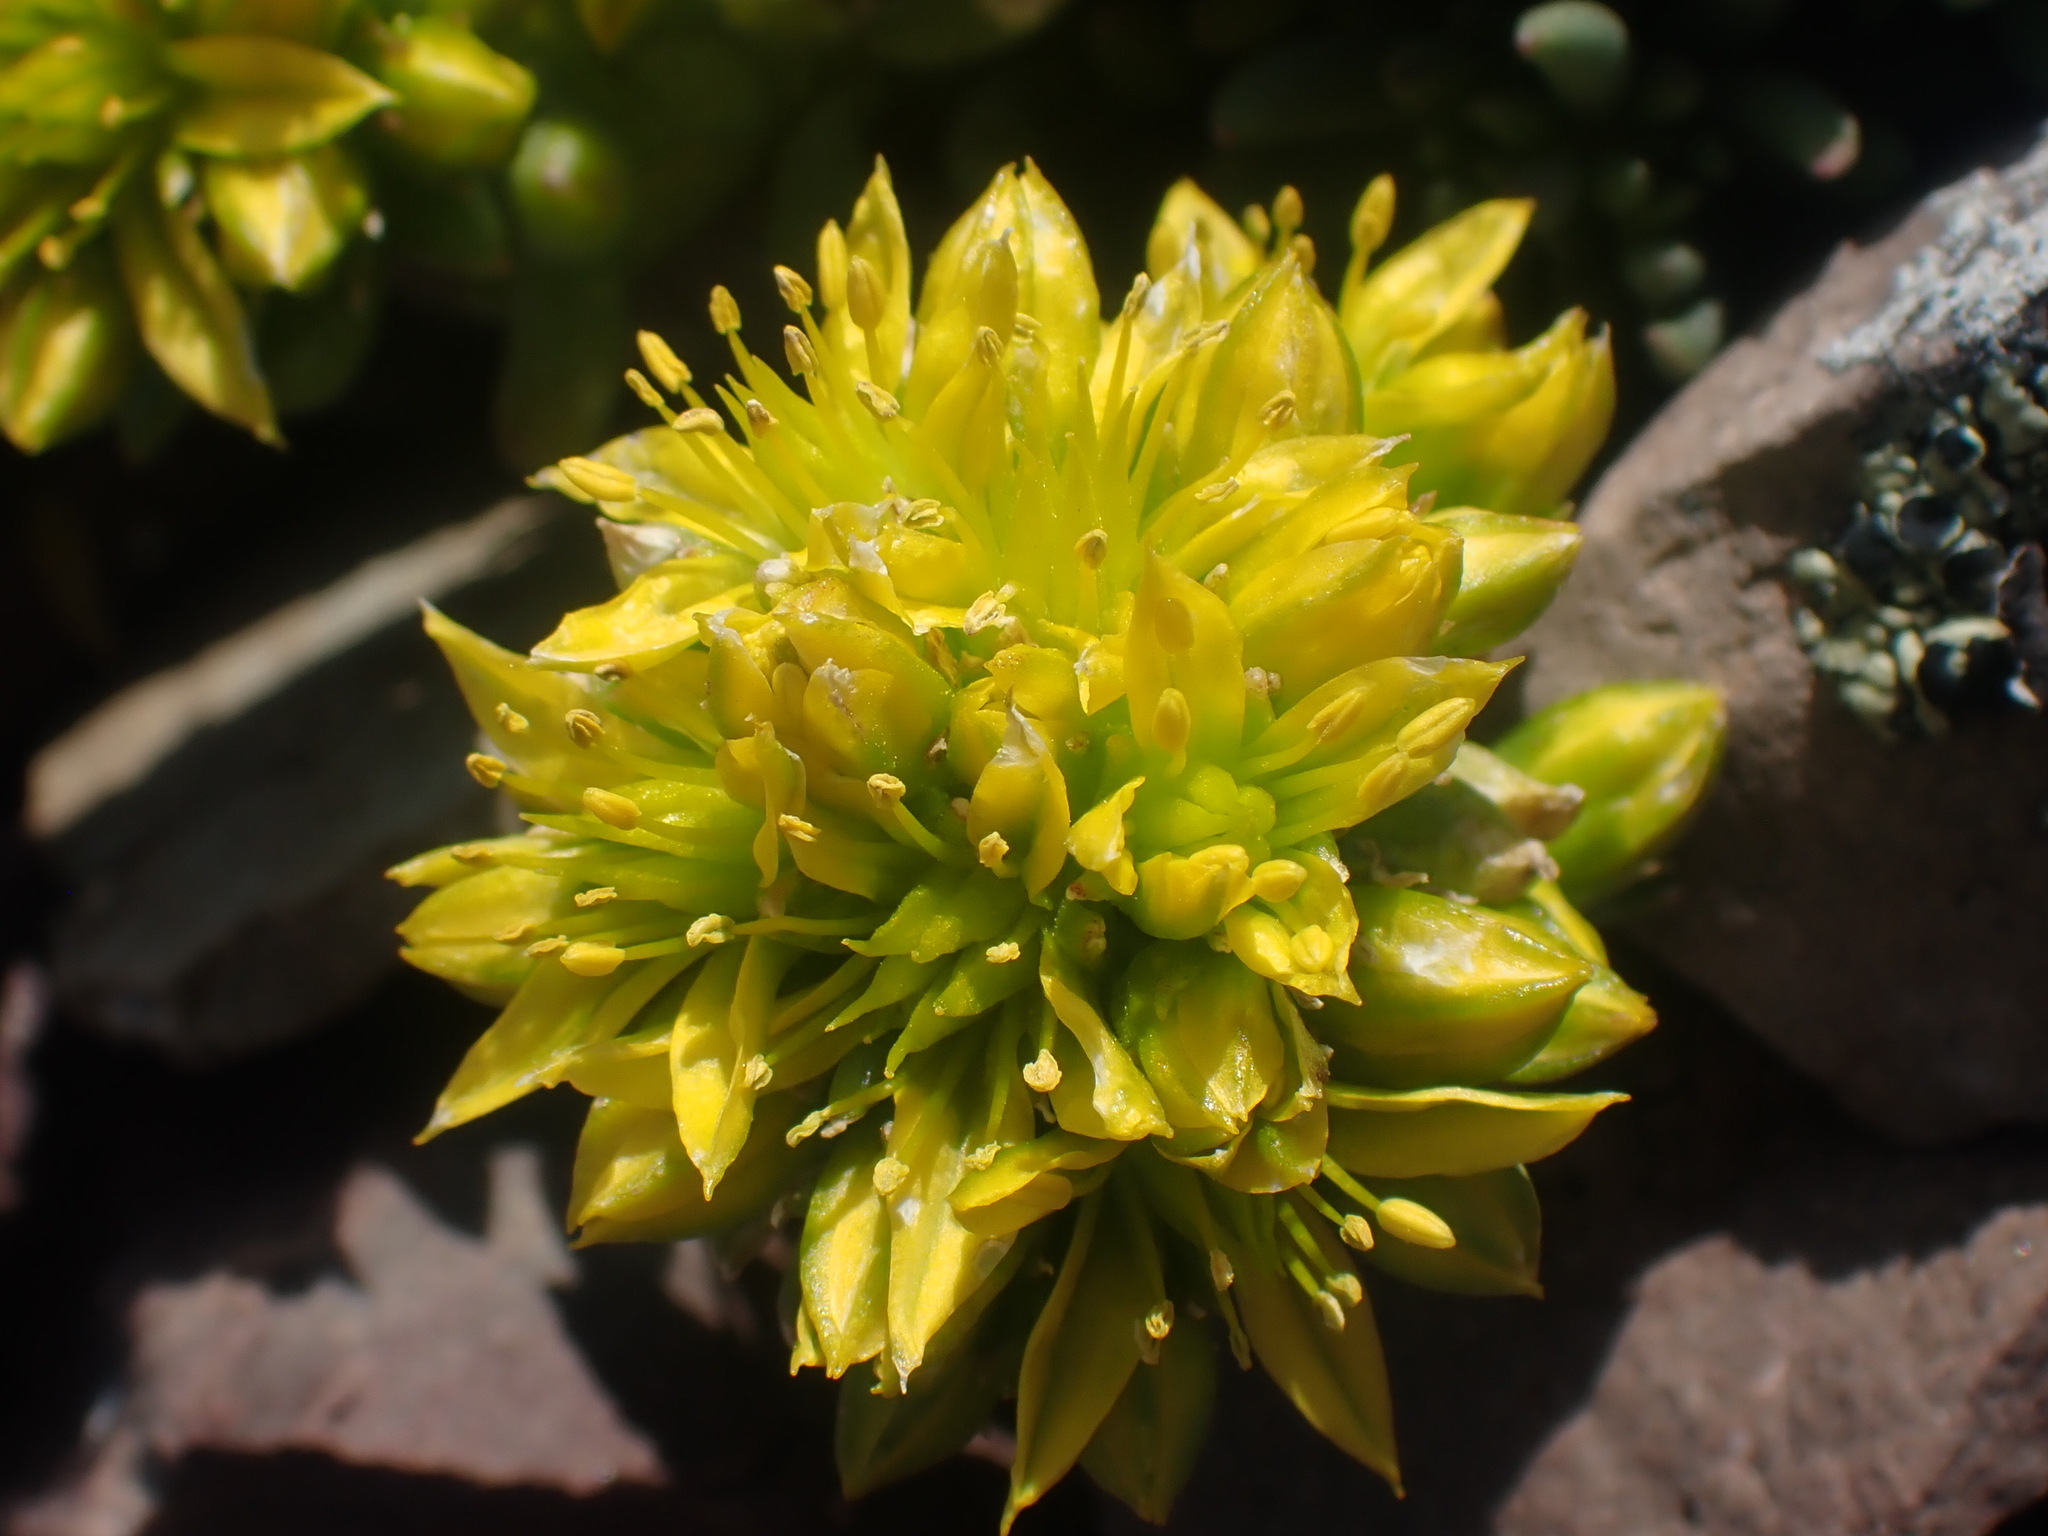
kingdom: Plantae
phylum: Tracheophyta
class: Magnoliopsida
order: Saxifragales
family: Crassulaceae
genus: Sedum
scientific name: Sedum lanceolatum
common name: Common stonecrop
